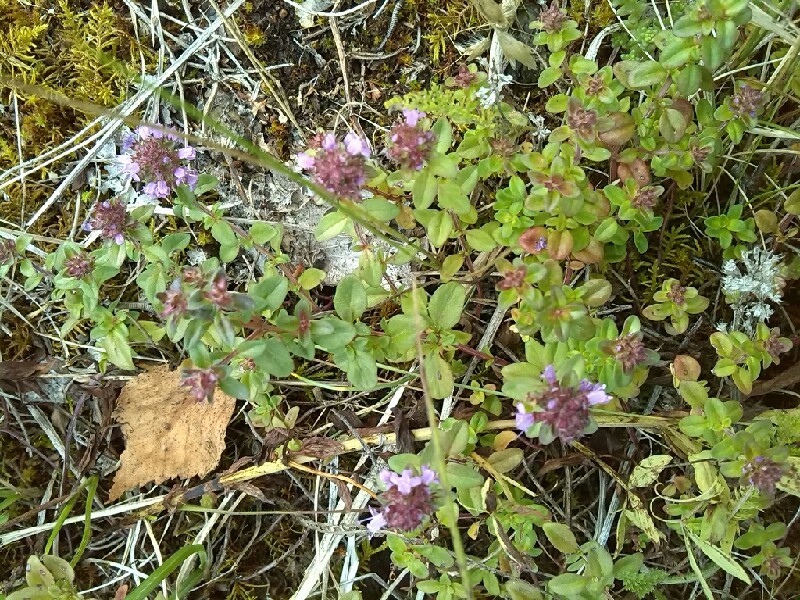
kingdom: Plantae
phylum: Tracheophyta
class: Magnoliopsida
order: Lamiales
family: Lamiaceae
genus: Thymus
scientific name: Thymus pulegioides
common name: Large thyme
